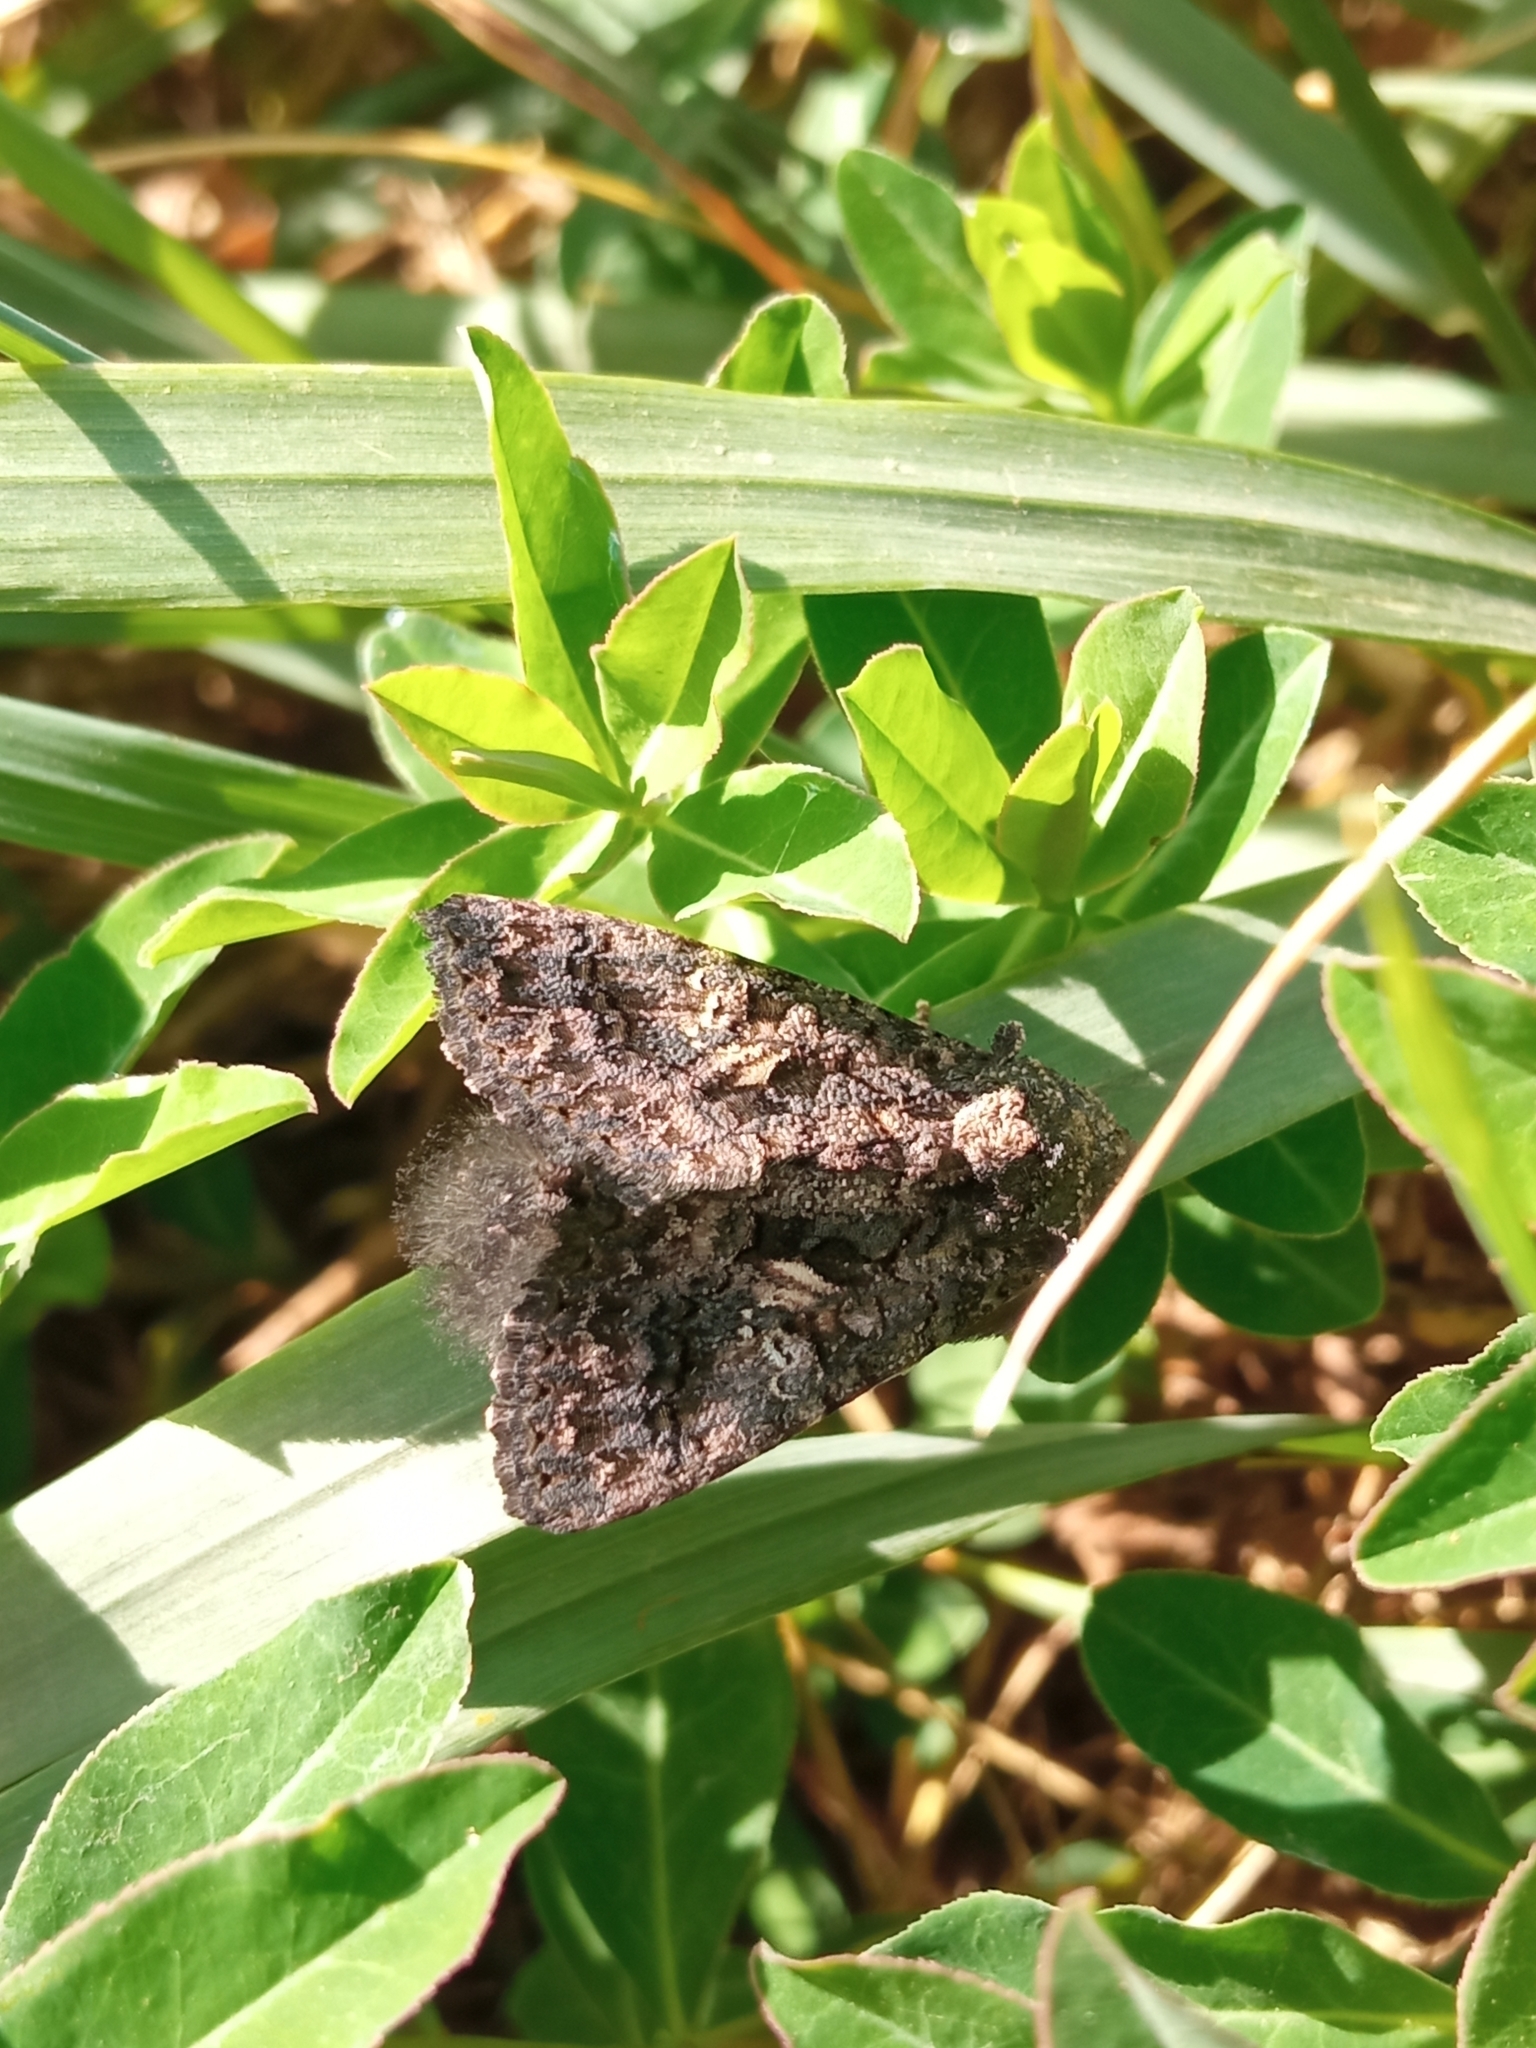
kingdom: Animalia
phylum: Arthropoda
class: Insecta
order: Lepidoptera
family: Noctuidae
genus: Aedia
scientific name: Aedia leucomelas
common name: Sorcerer
